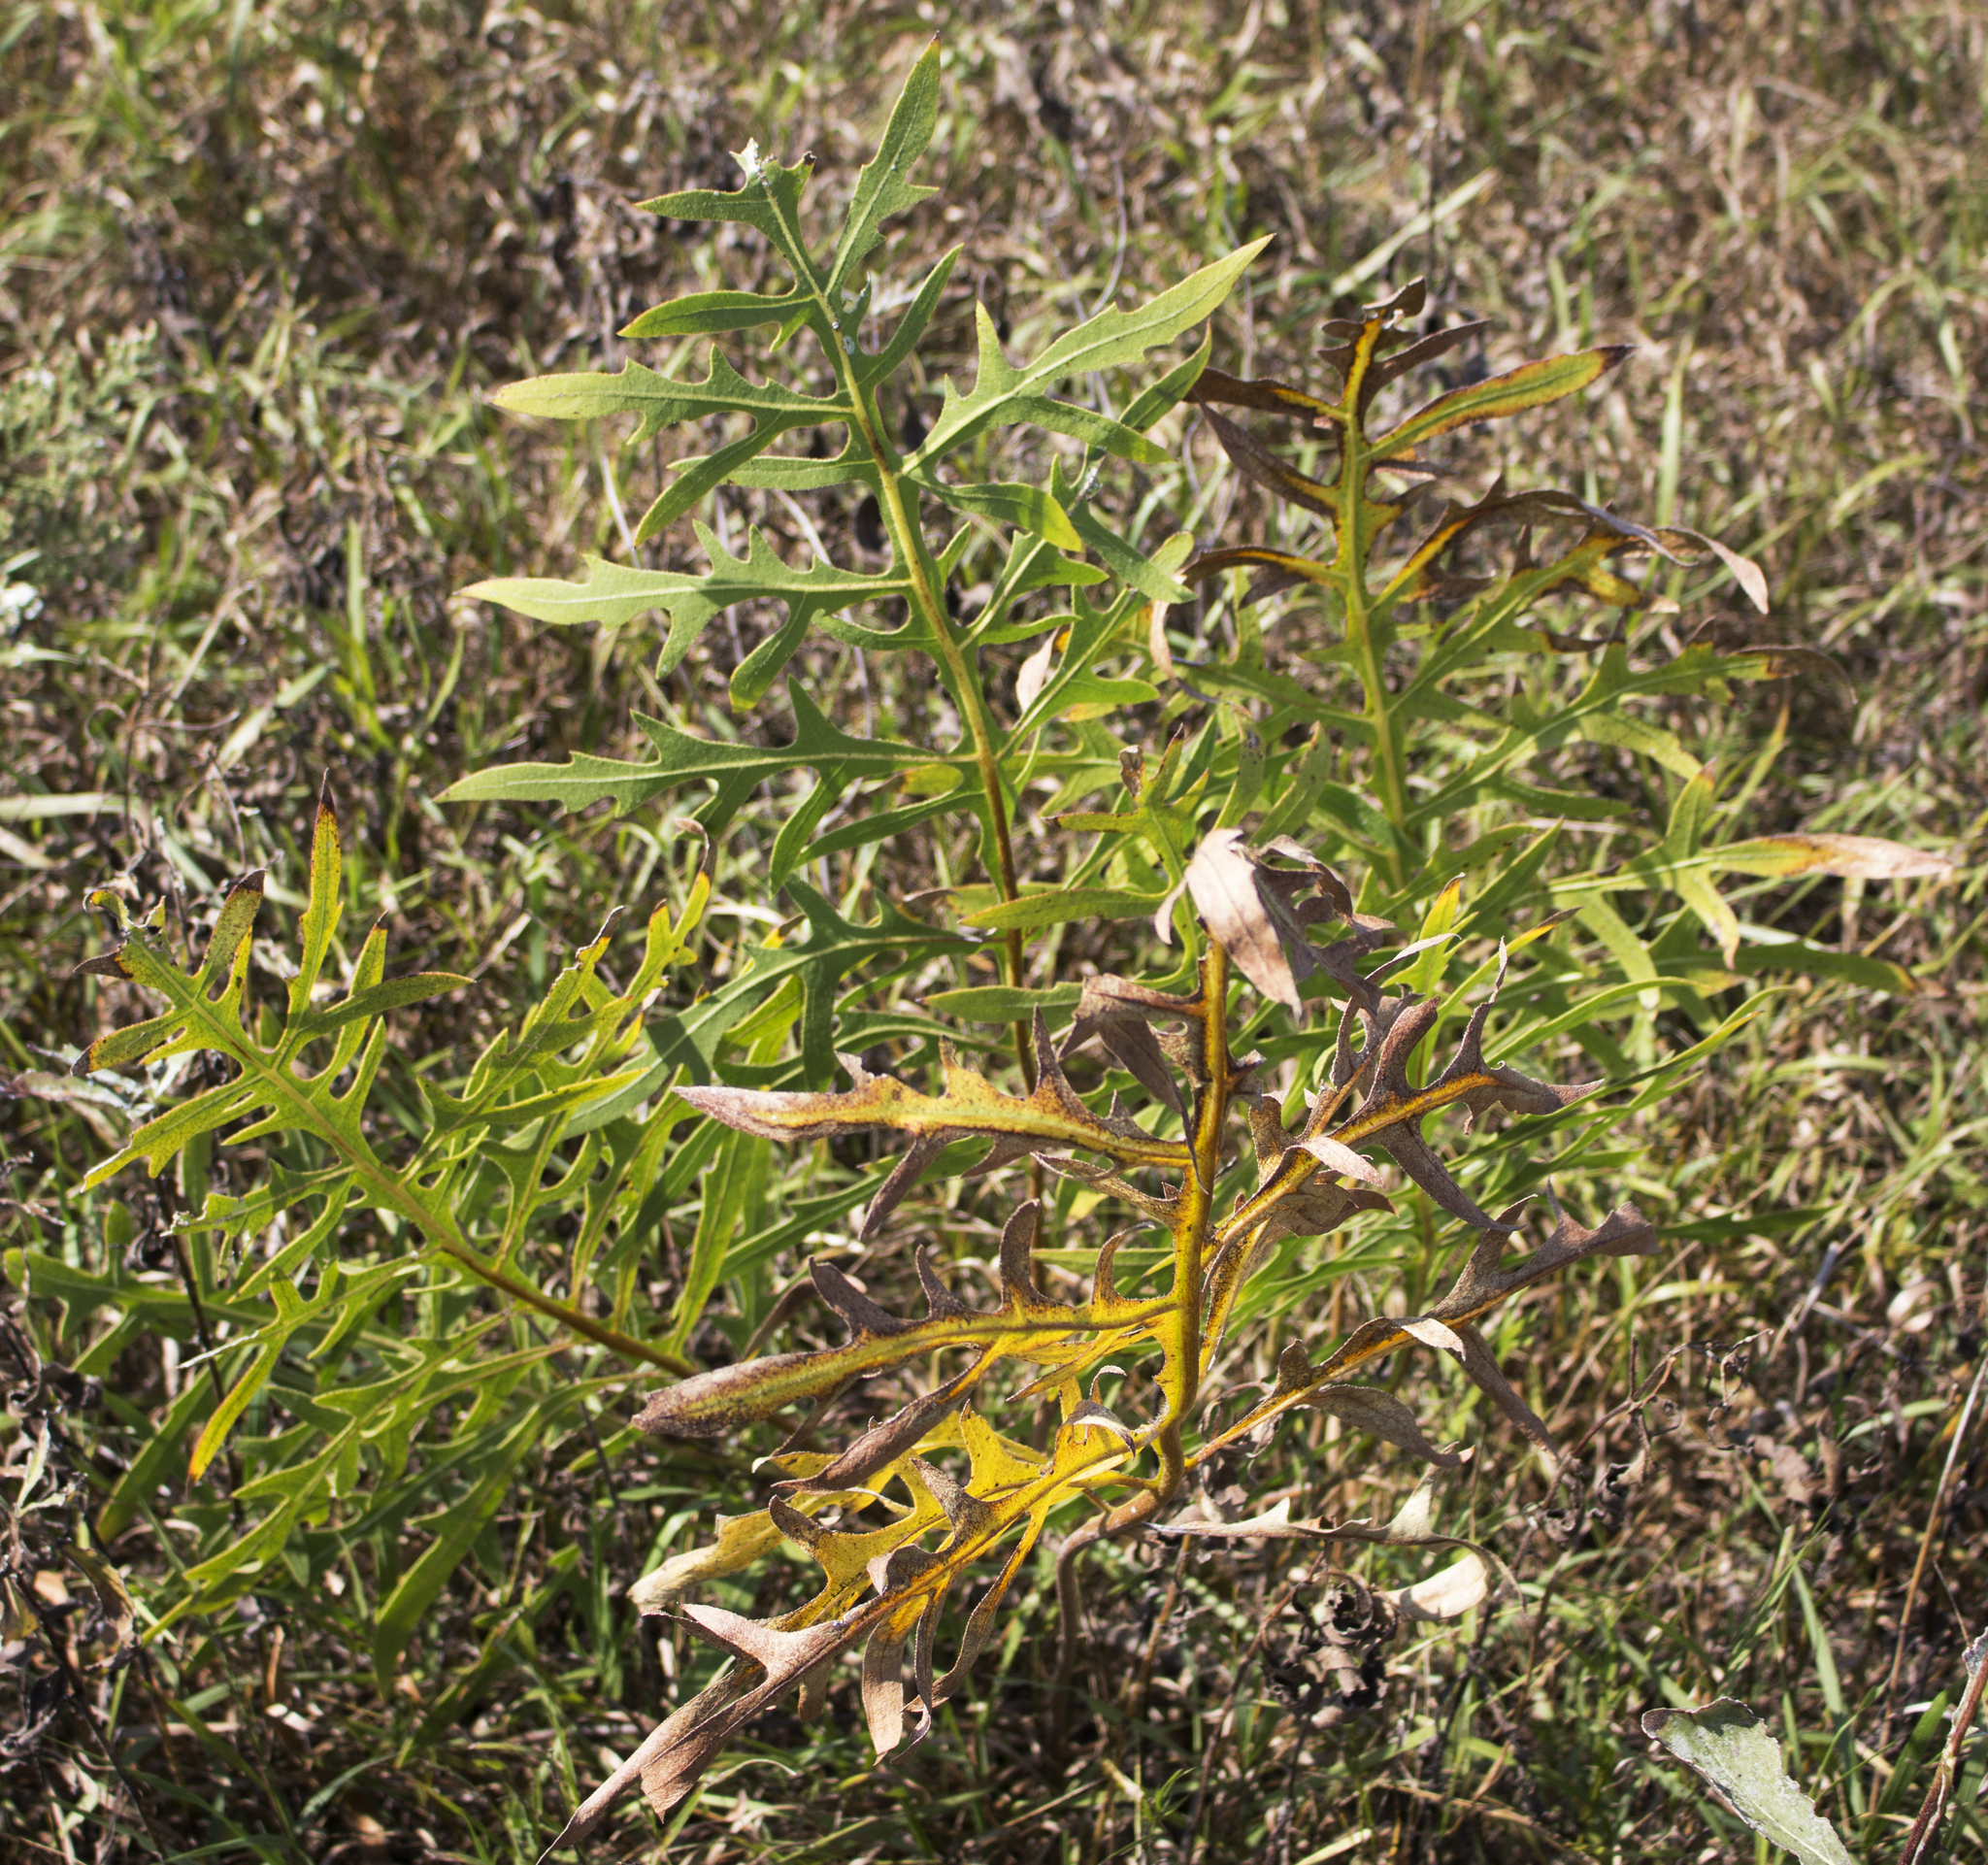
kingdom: Plantae
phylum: Tracheophyta
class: Magnoliopsida
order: Asterales
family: Asteraceae
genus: Silphium
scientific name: Silphium laciniatum
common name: Polarplant
